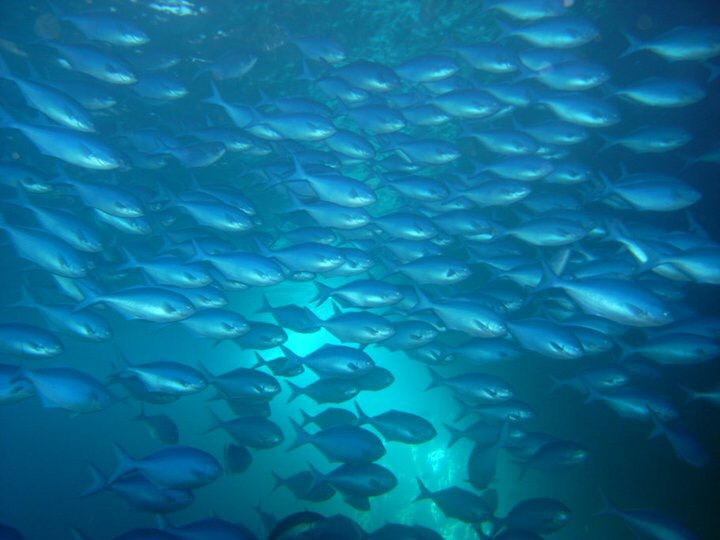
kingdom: Animalia
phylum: Chordata
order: Perciformes
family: Kyphosidae
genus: Scorpis
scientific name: Scorpis violacea
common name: Blue maomao
